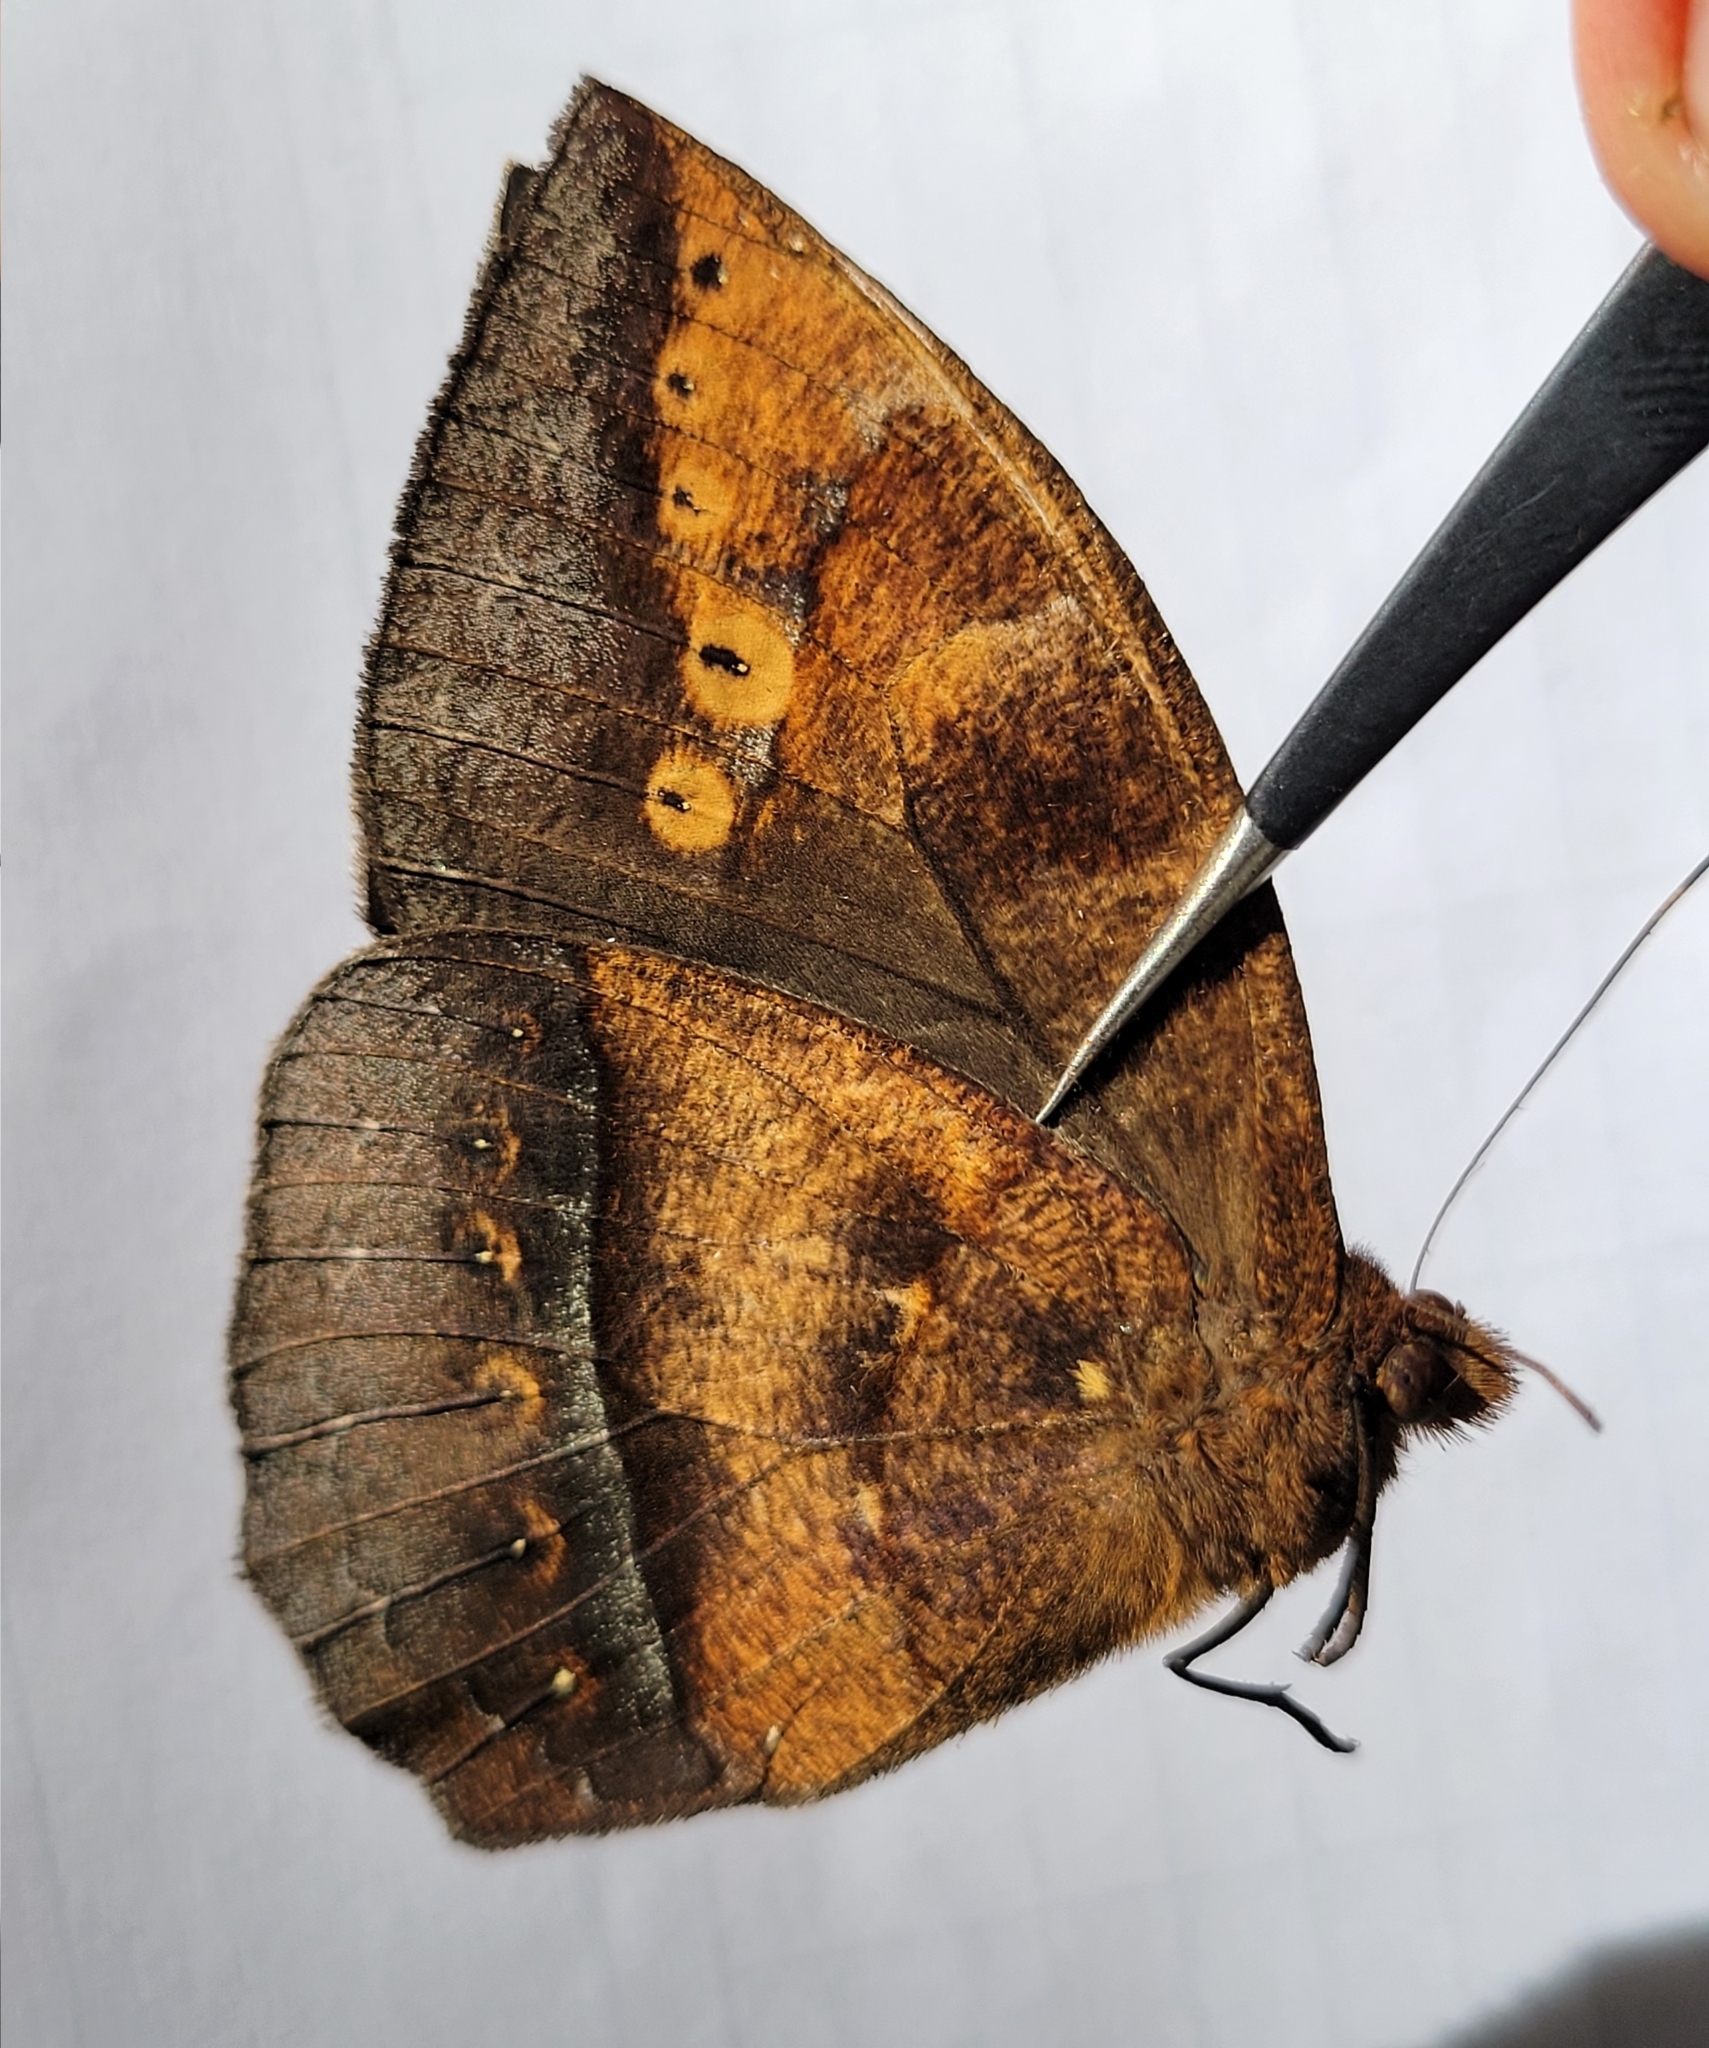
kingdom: Animalia
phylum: Arthropoda
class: Insecta
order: Lepidoptera
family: Nymphalidae
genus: Taygetis
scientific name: Taygetis mermeria
